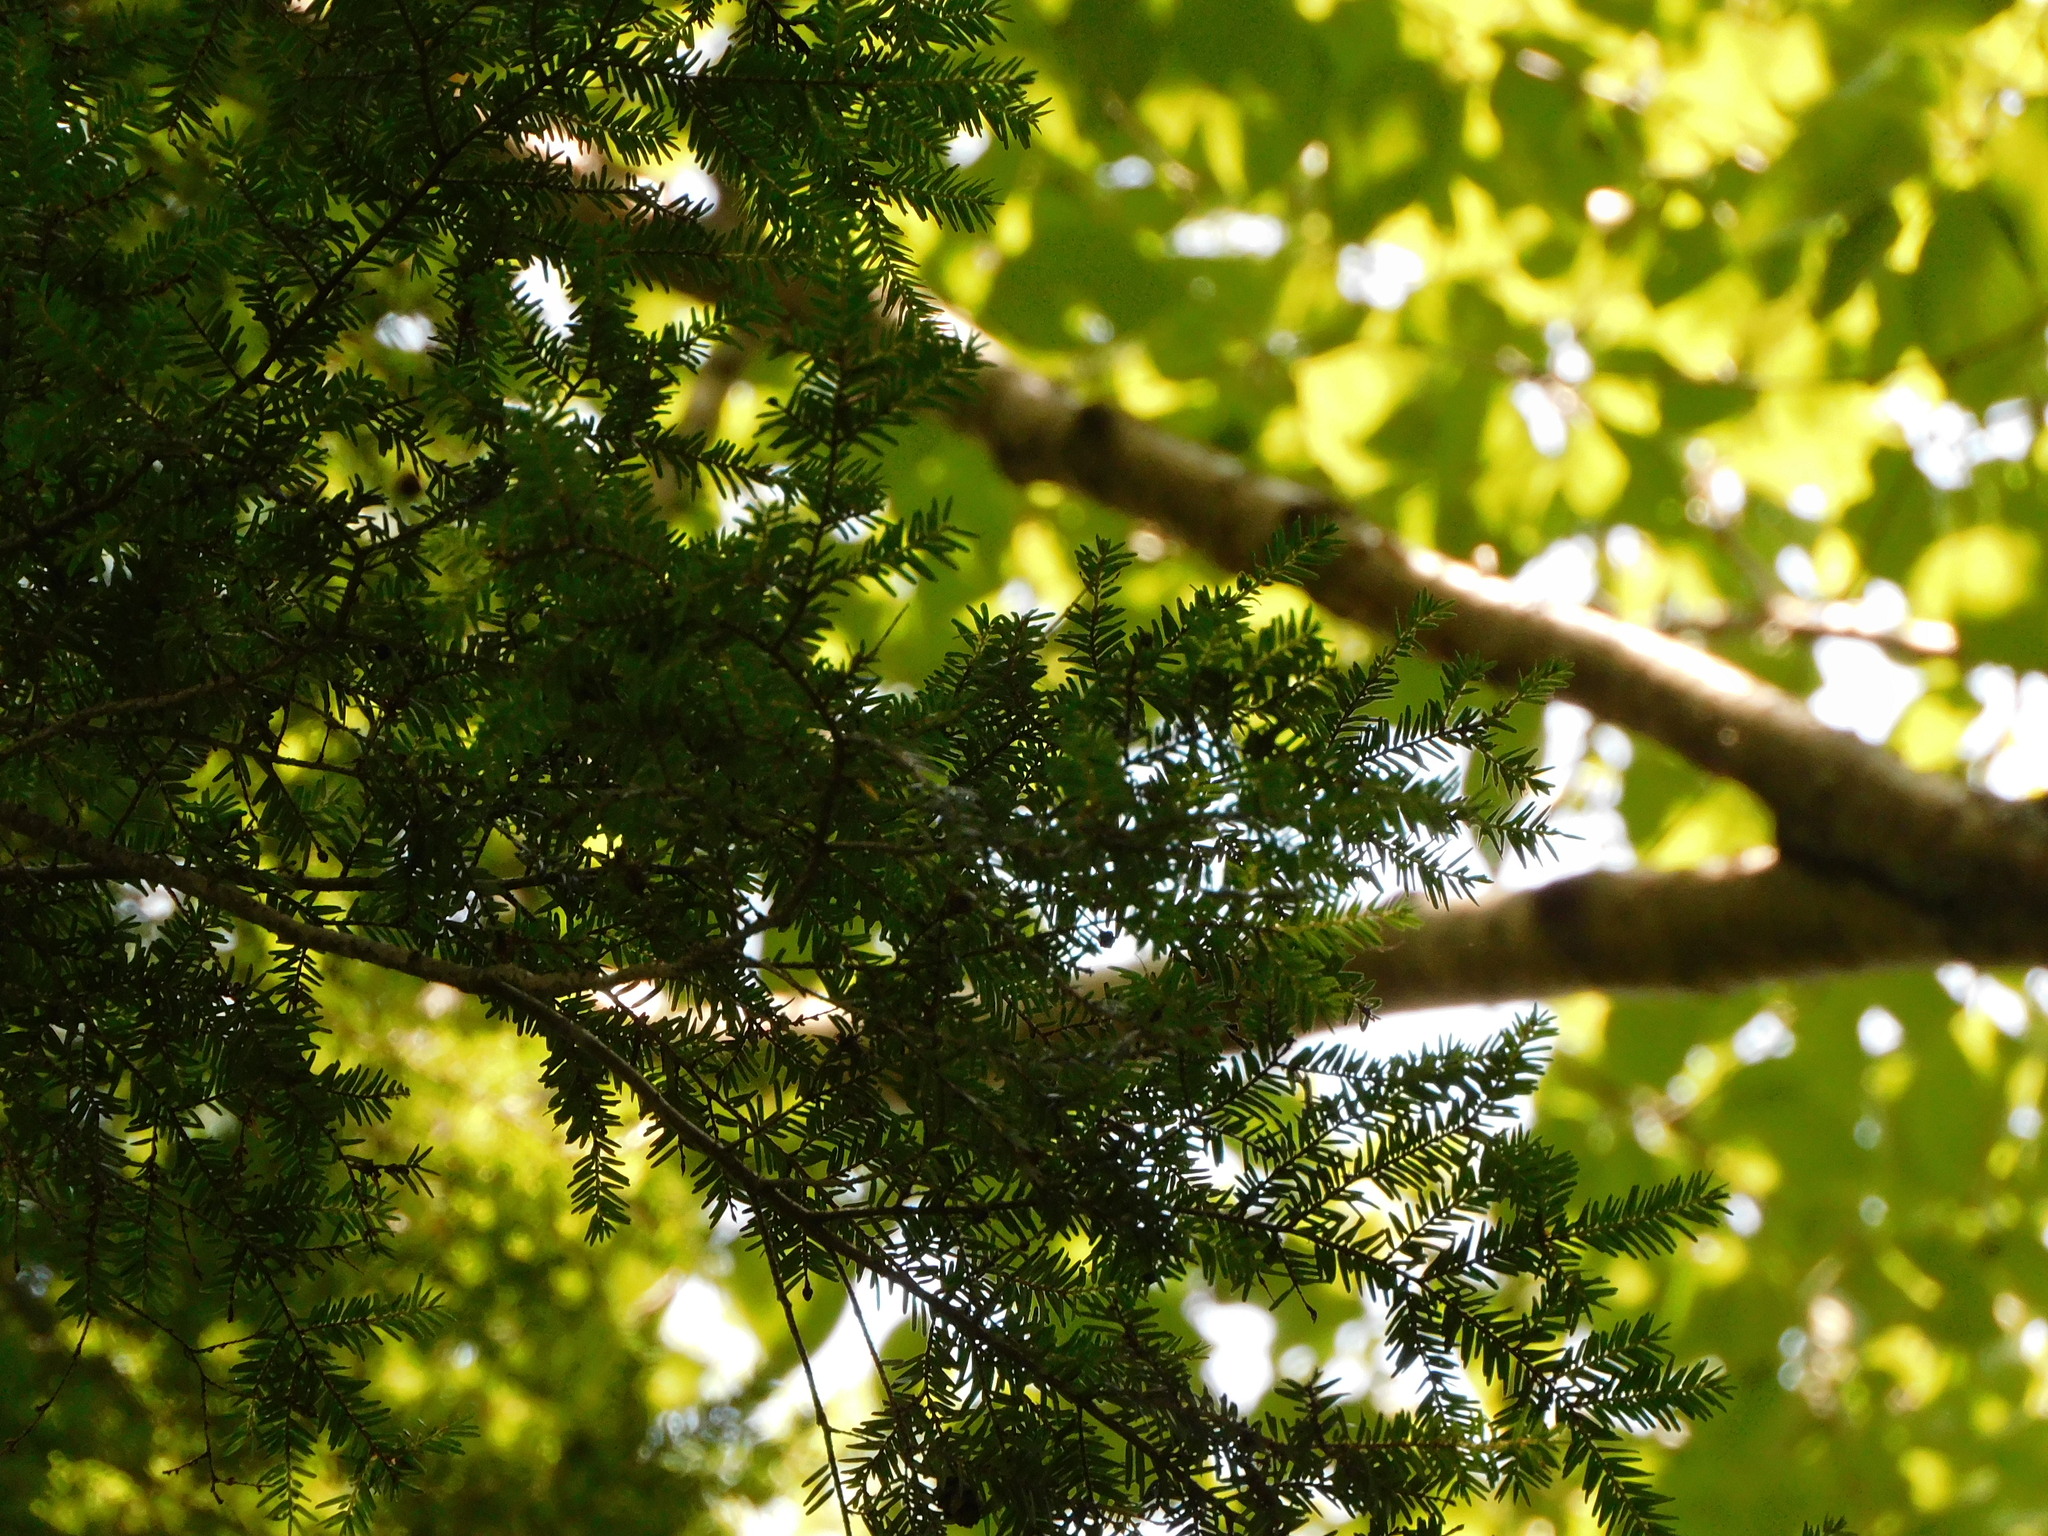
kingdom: Plantae
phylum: Tracheophyta
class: Pinopsida
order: Pinales
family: Pinaceae
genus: Tsuga
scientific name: Tsuga canadensis
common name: Eastern hemlock
